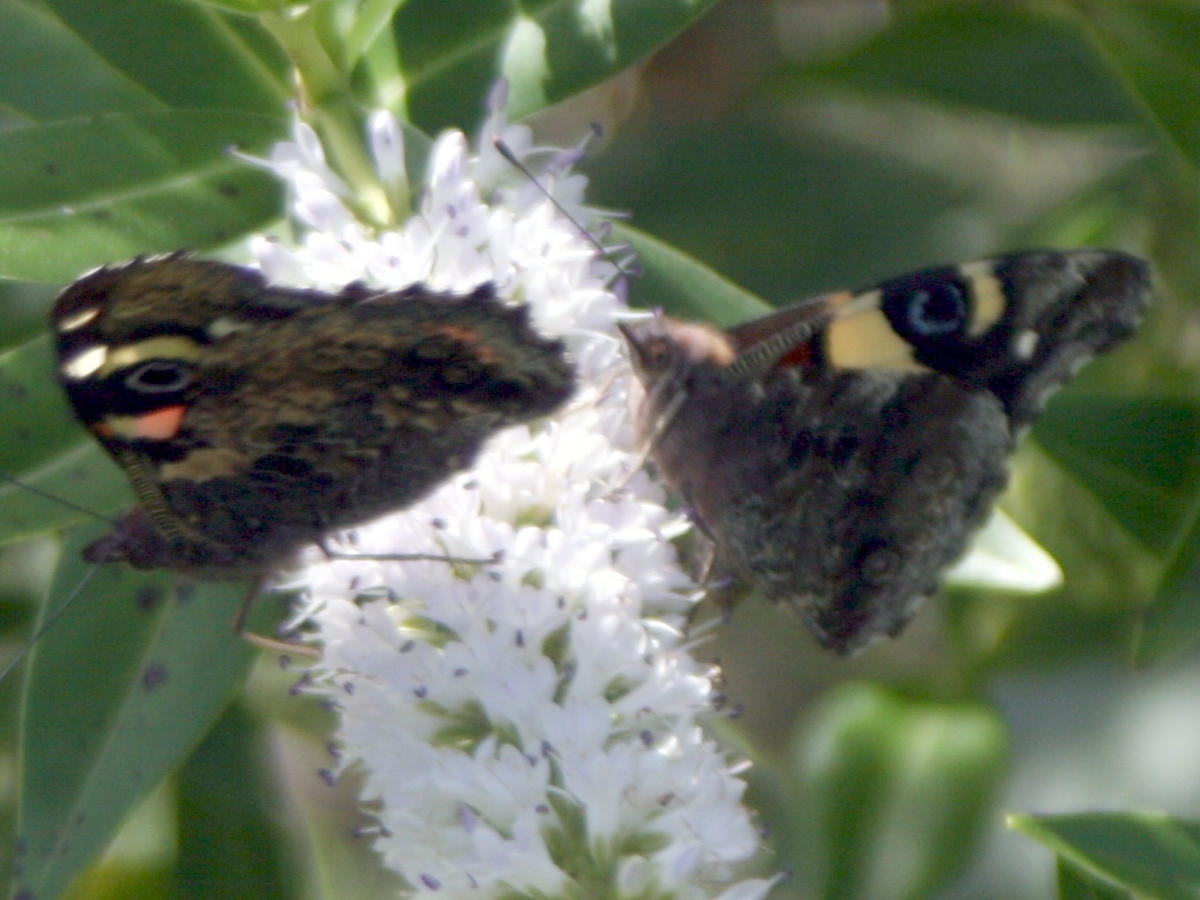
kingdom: Animalia
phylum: Arthropoda
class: Insecta
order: Lepidoptera
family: Nymphalidae
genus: Vanessa
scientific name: Vanessa itea
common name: Yellow admiral
